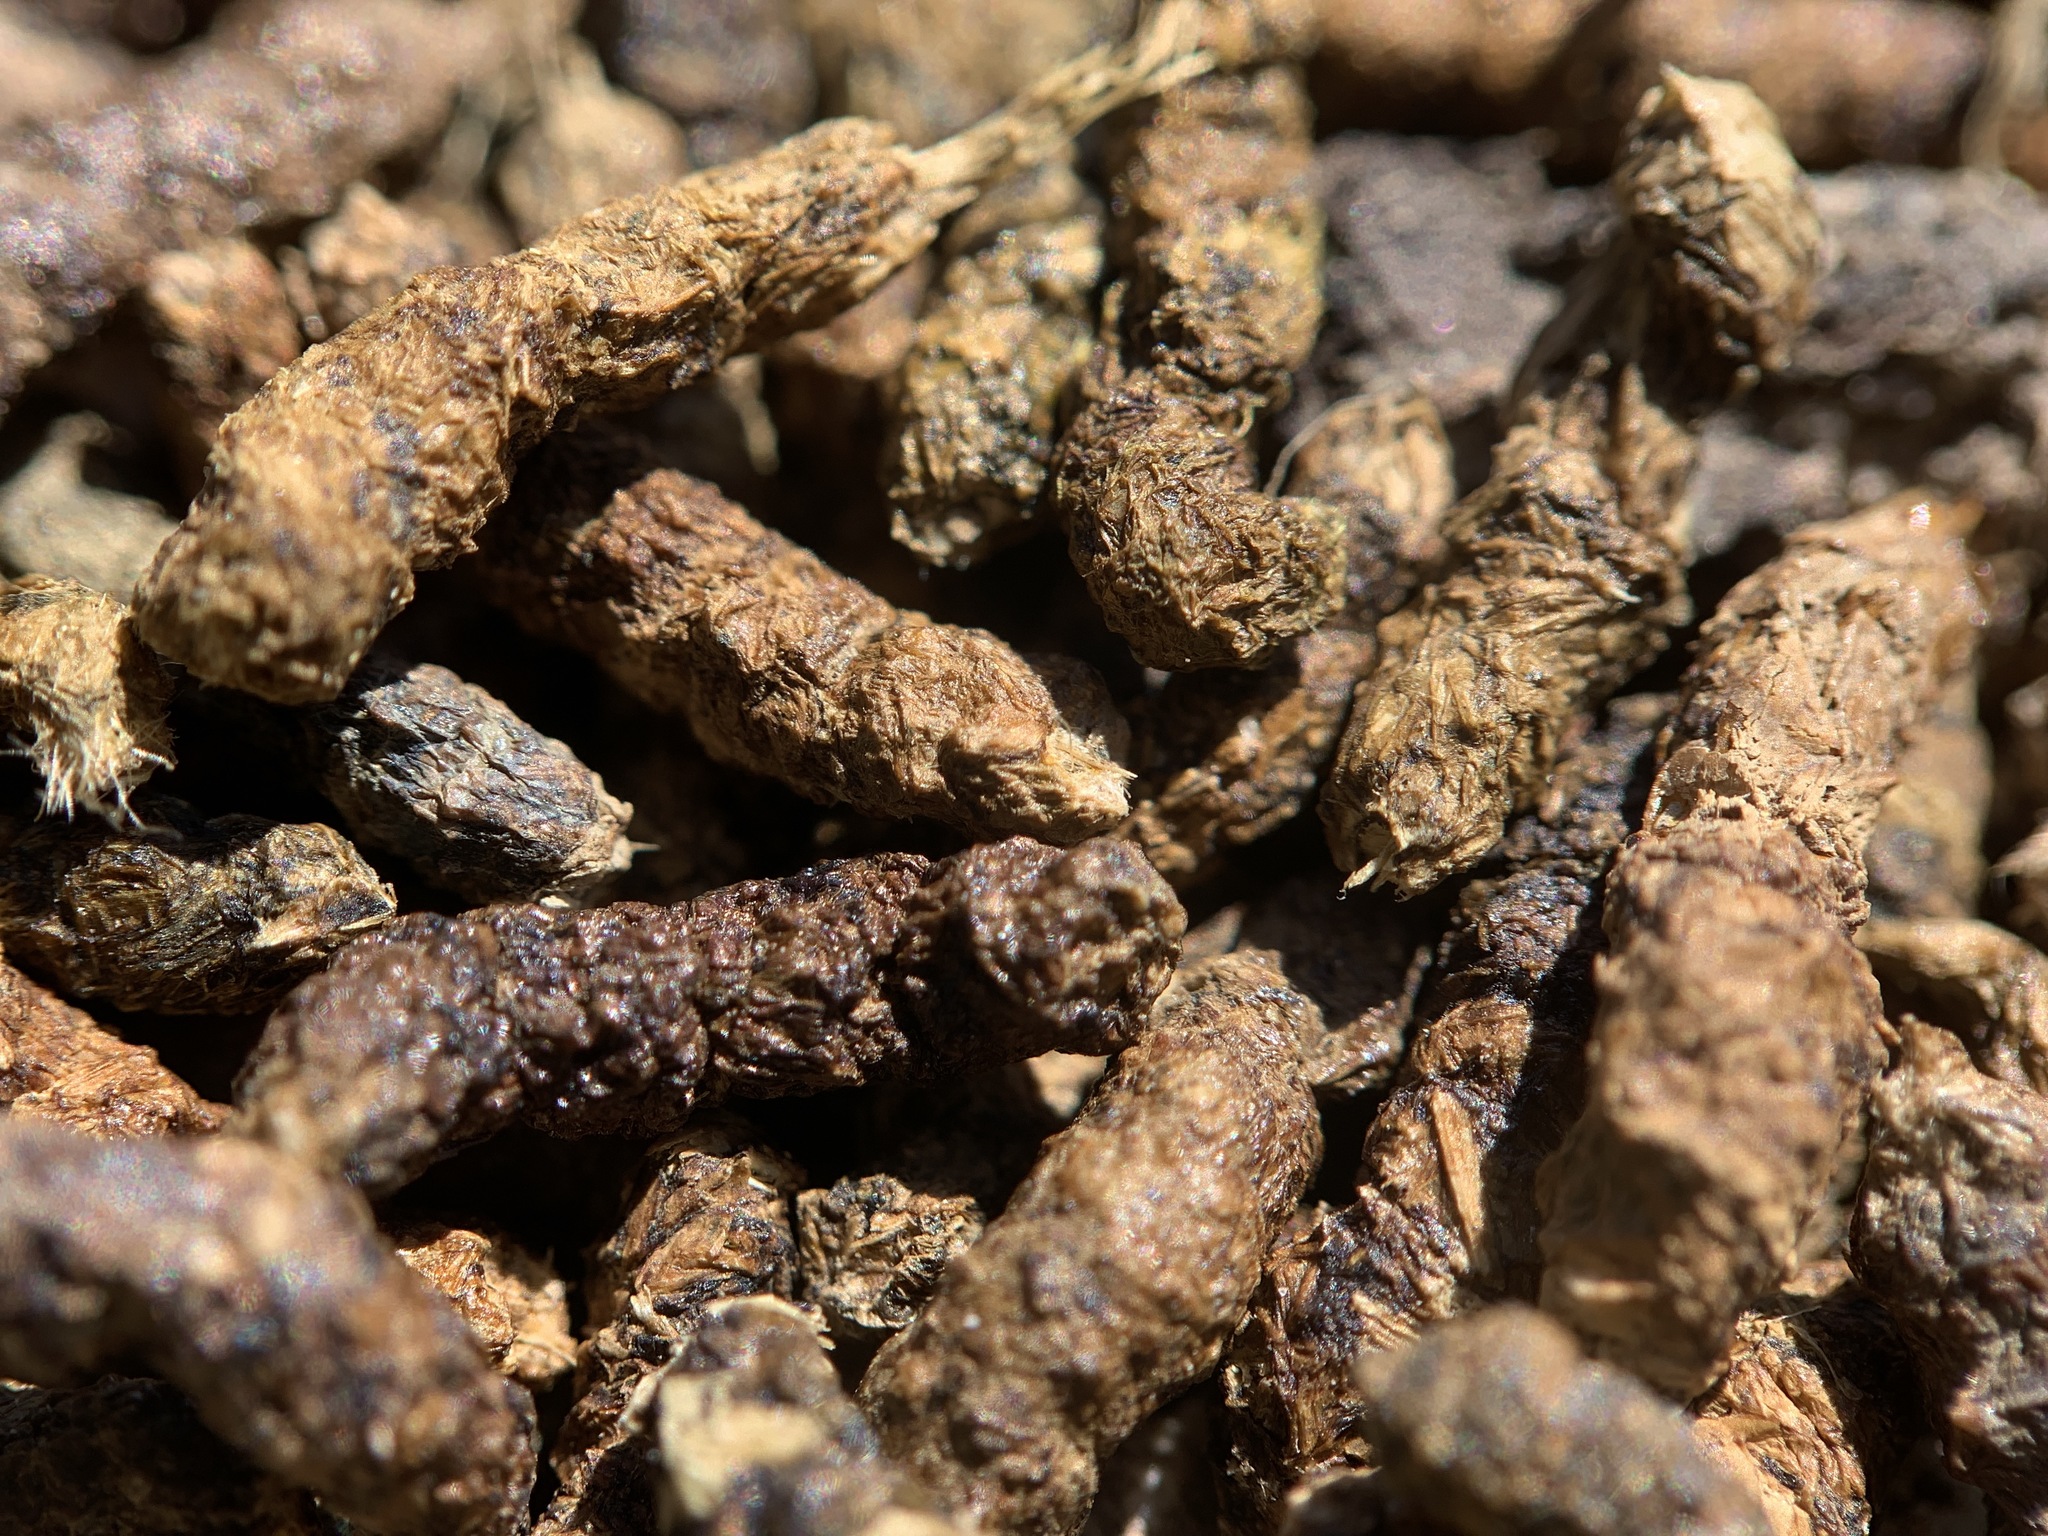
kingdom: Animalia
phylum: Arthropoda
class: Insecta
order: Orthoptera
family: Tettigoniidae
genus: Anabrus
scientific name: Anabrus simplex
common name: Mormon cricket
